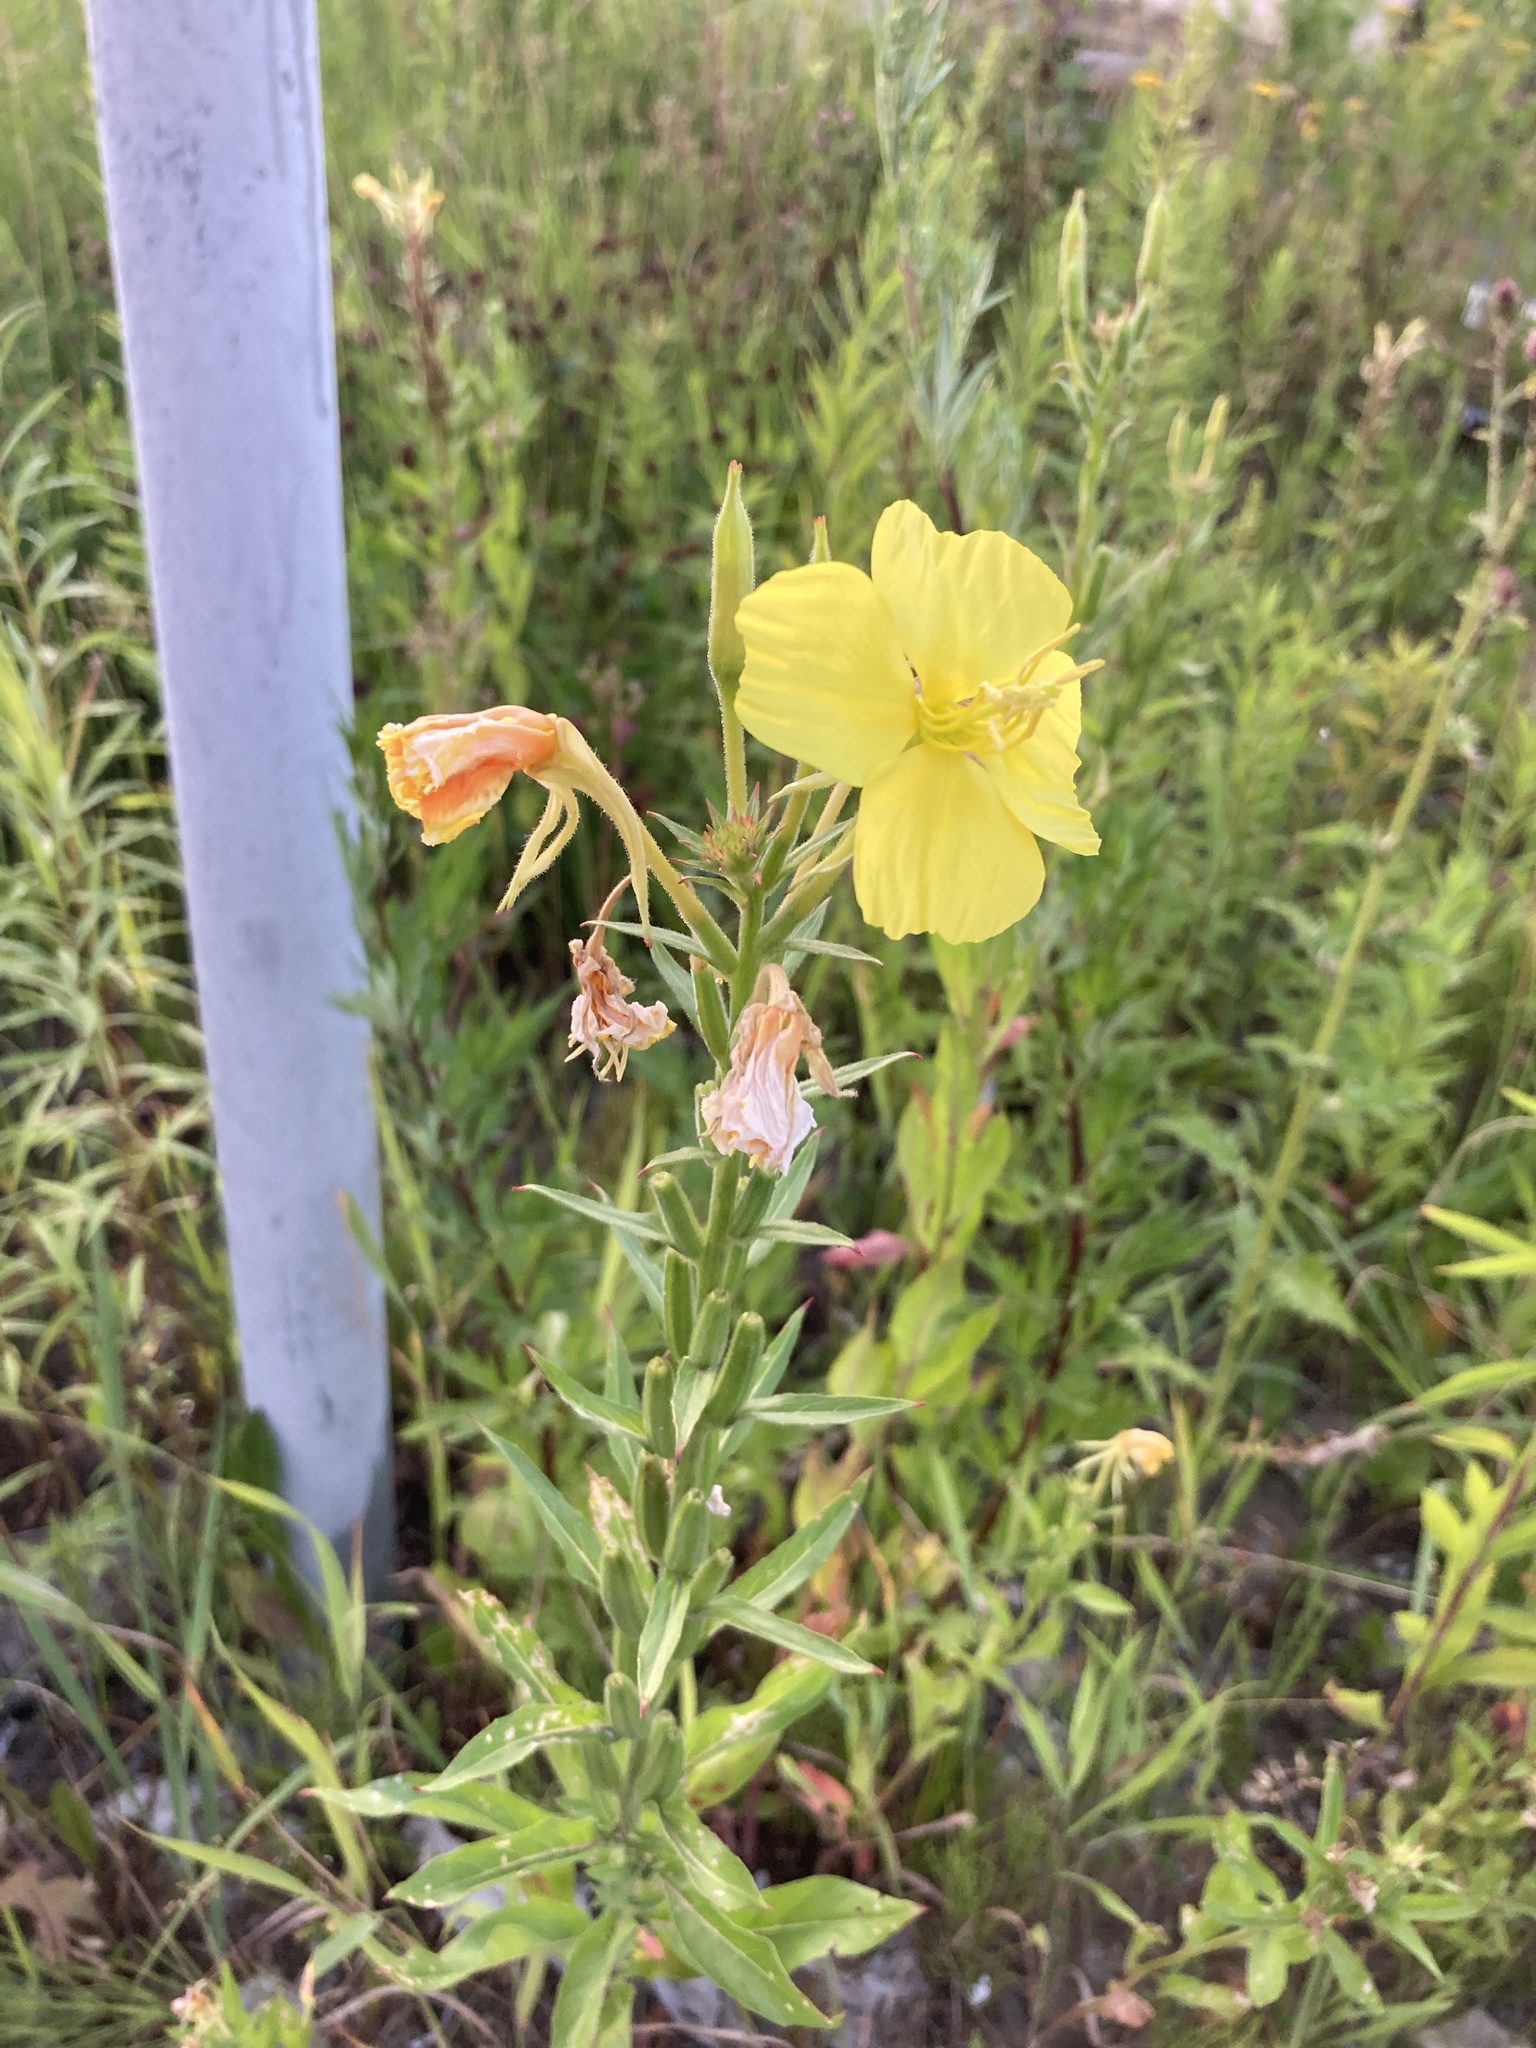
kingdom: Plantae
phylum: Tracheophyta
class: Magnoliopsida
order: Myrtales
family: Onagraceae
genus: Oenothera
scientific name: Oenothera biennis
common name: Common evening-primrose
